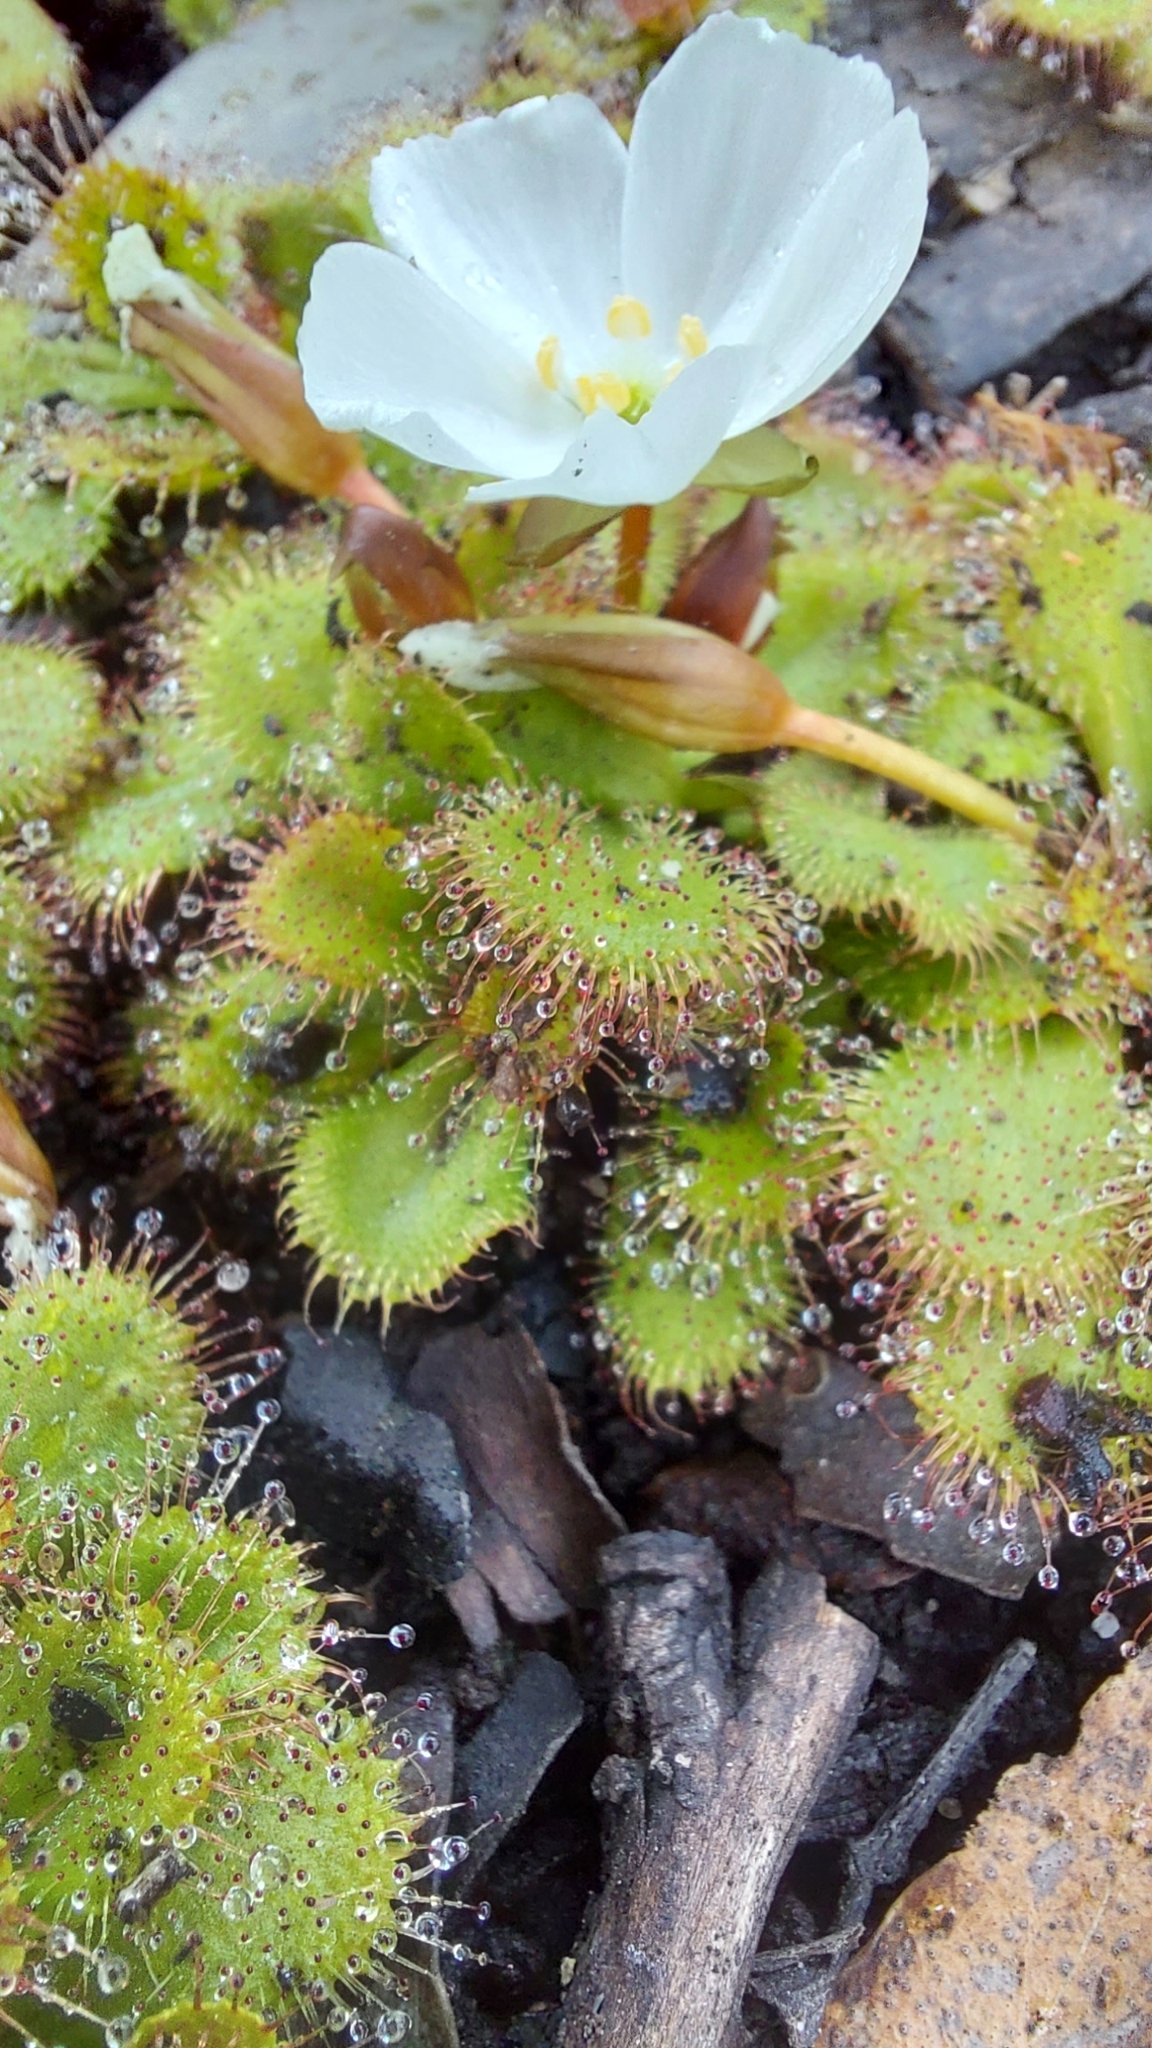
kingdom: Plantae
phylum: Tracheophyta
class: Magnoliopsida
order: Caryophyllales
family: Droseraceae
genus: Drosera
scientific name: Drosera aberrans
